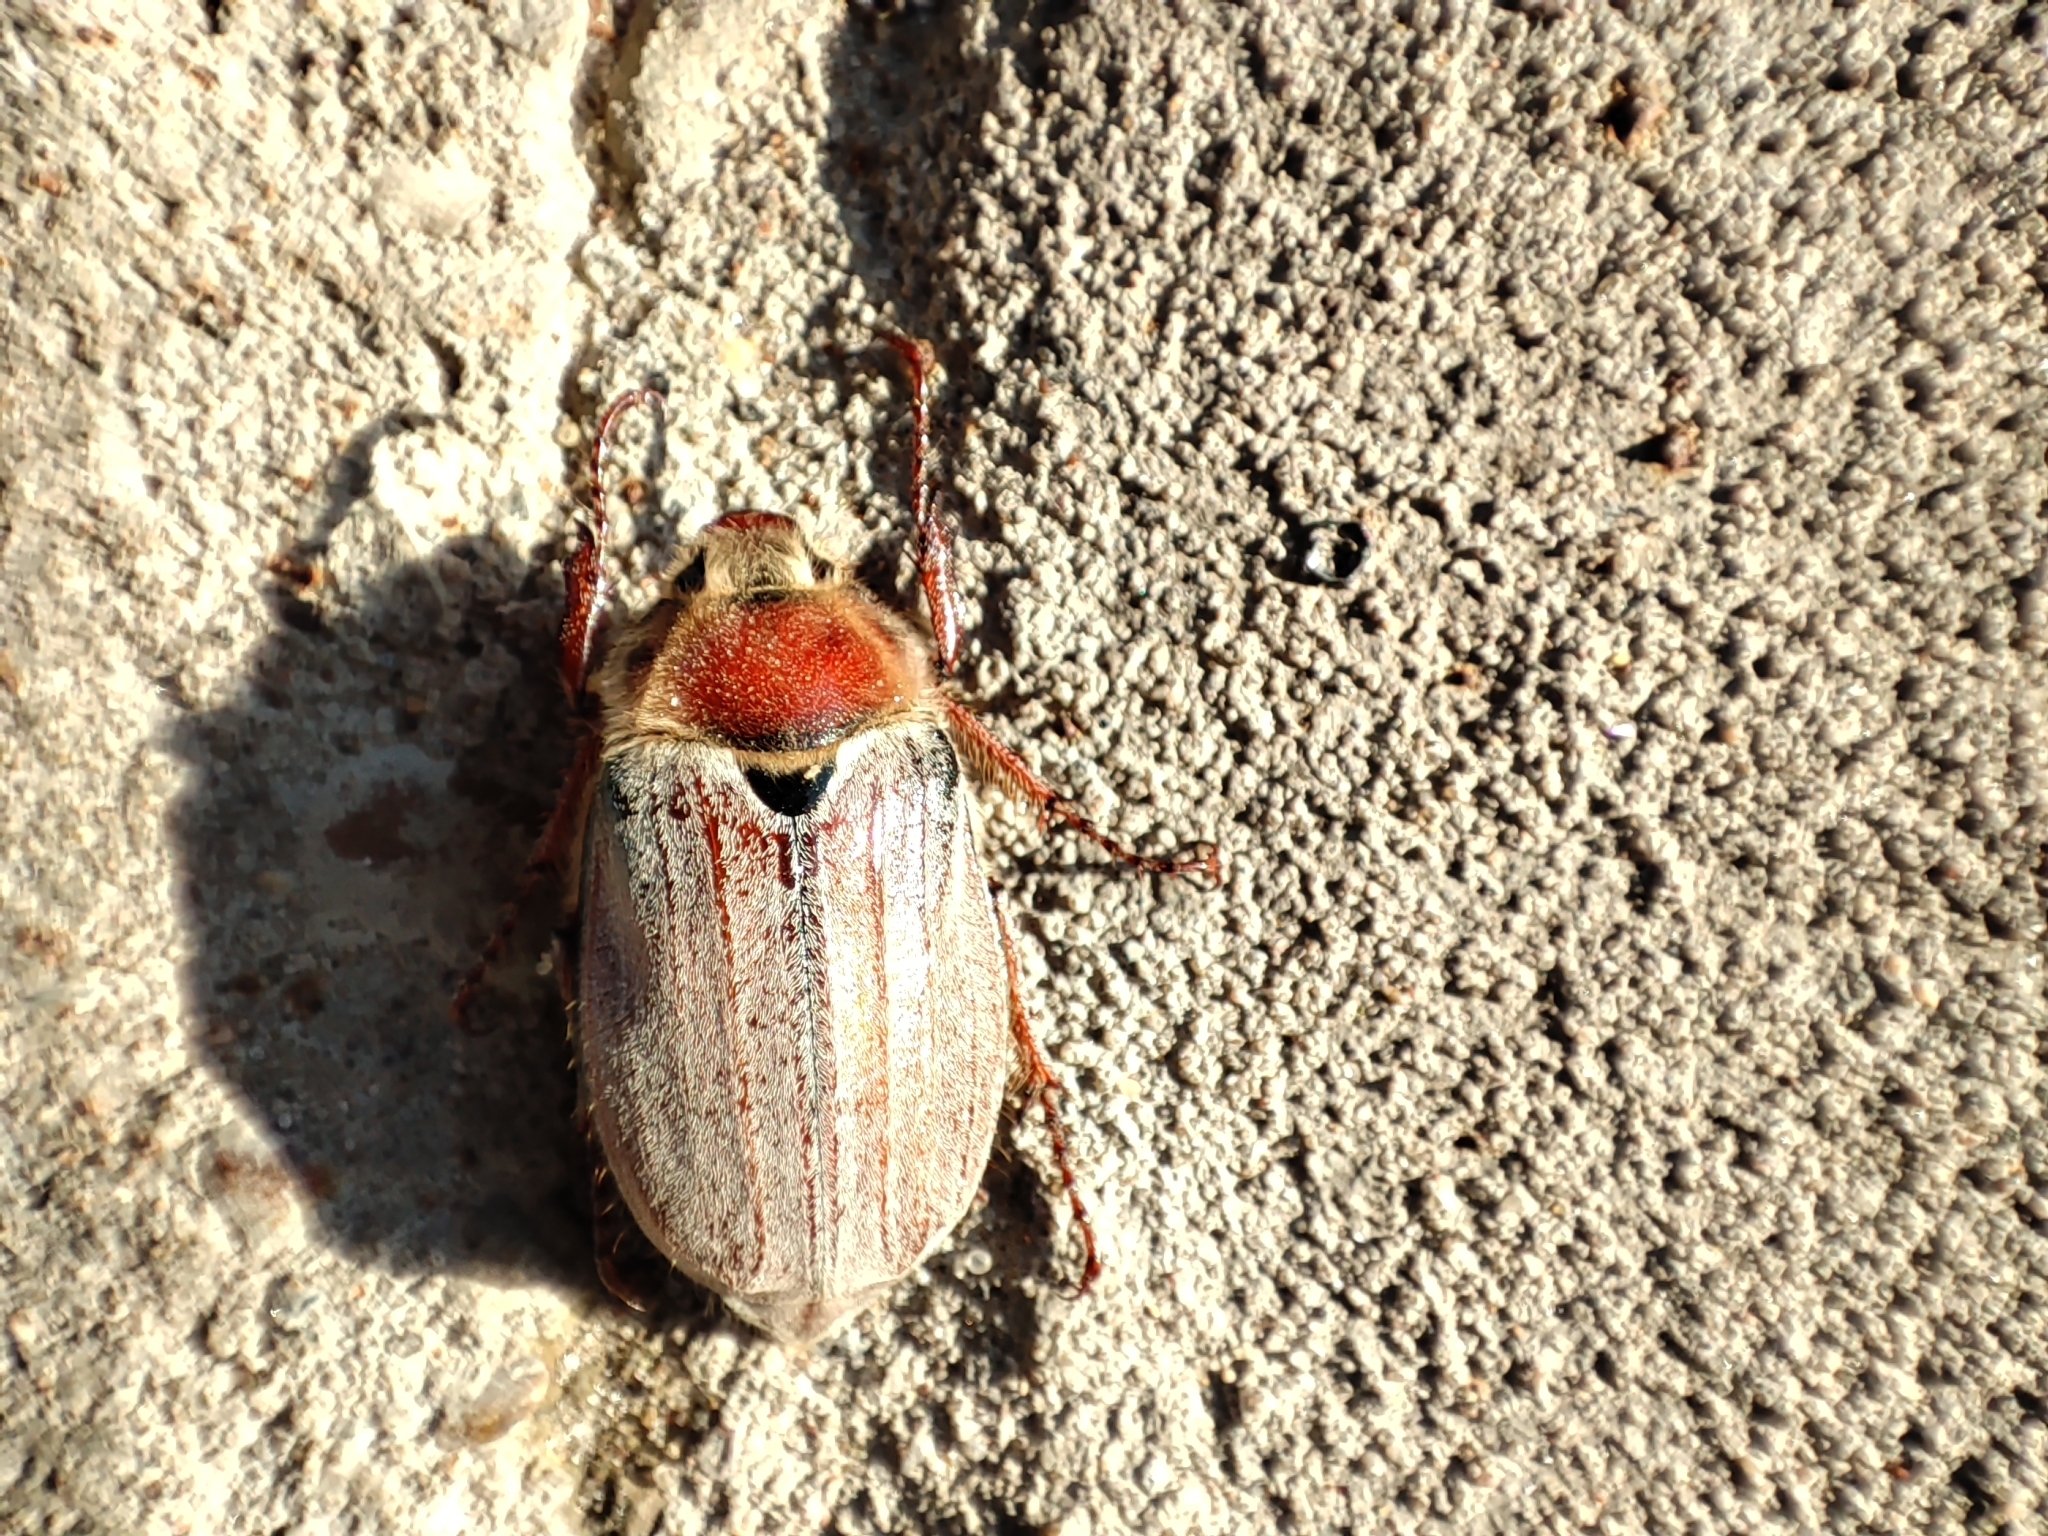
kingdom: Animalia
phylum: Arthropoda
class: Insecta
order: Coleoptera
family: Scarabaeidae
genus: Melolontha
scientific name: Melolontha hippocastani
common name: Chestnut cockchafer
